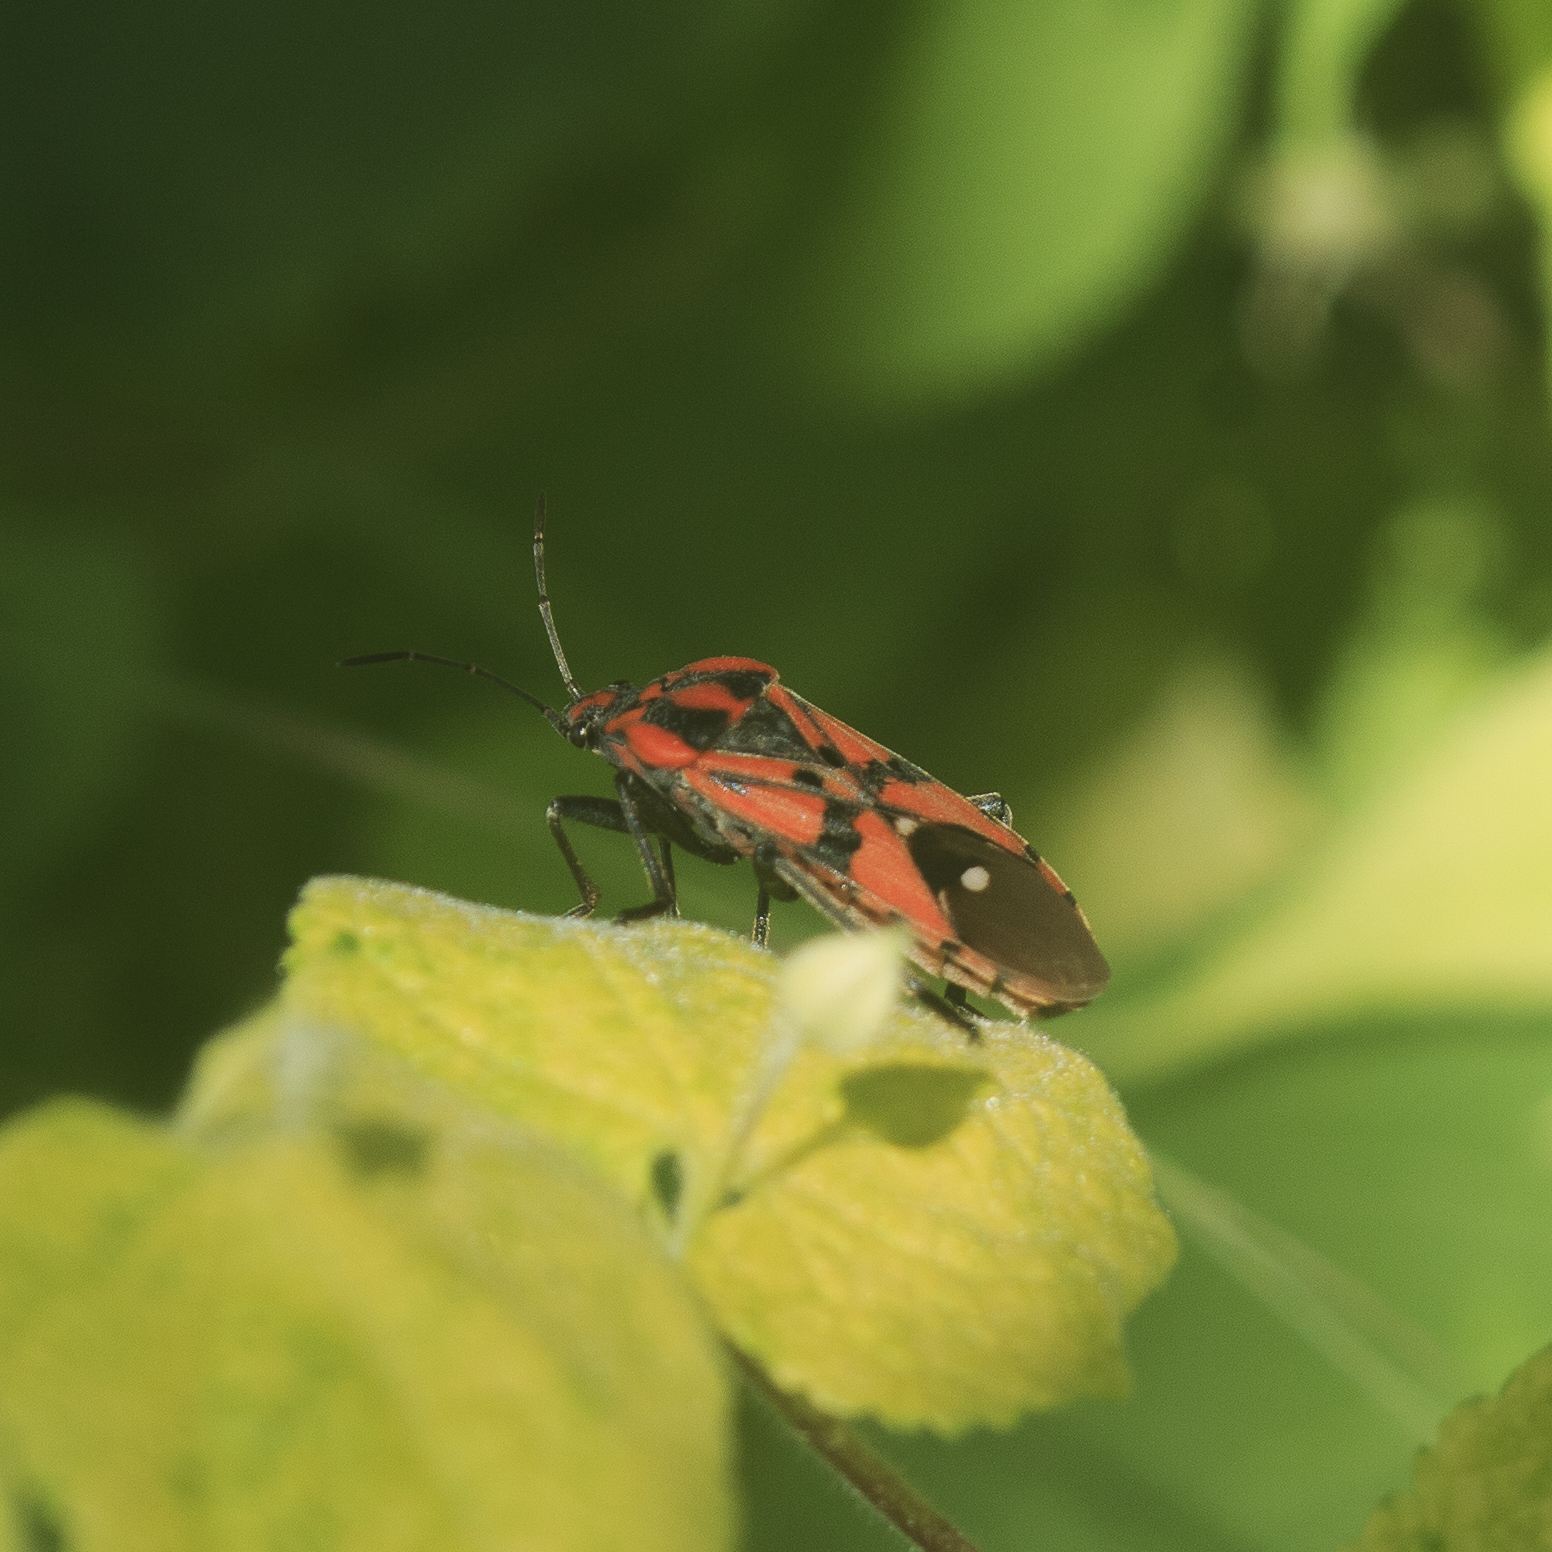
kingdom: Animalia
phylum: Arthropoda
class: Insecta
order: Hemiptera
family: Lygaeidae
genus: Spilostethus
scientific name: Spilostethus pandurus
